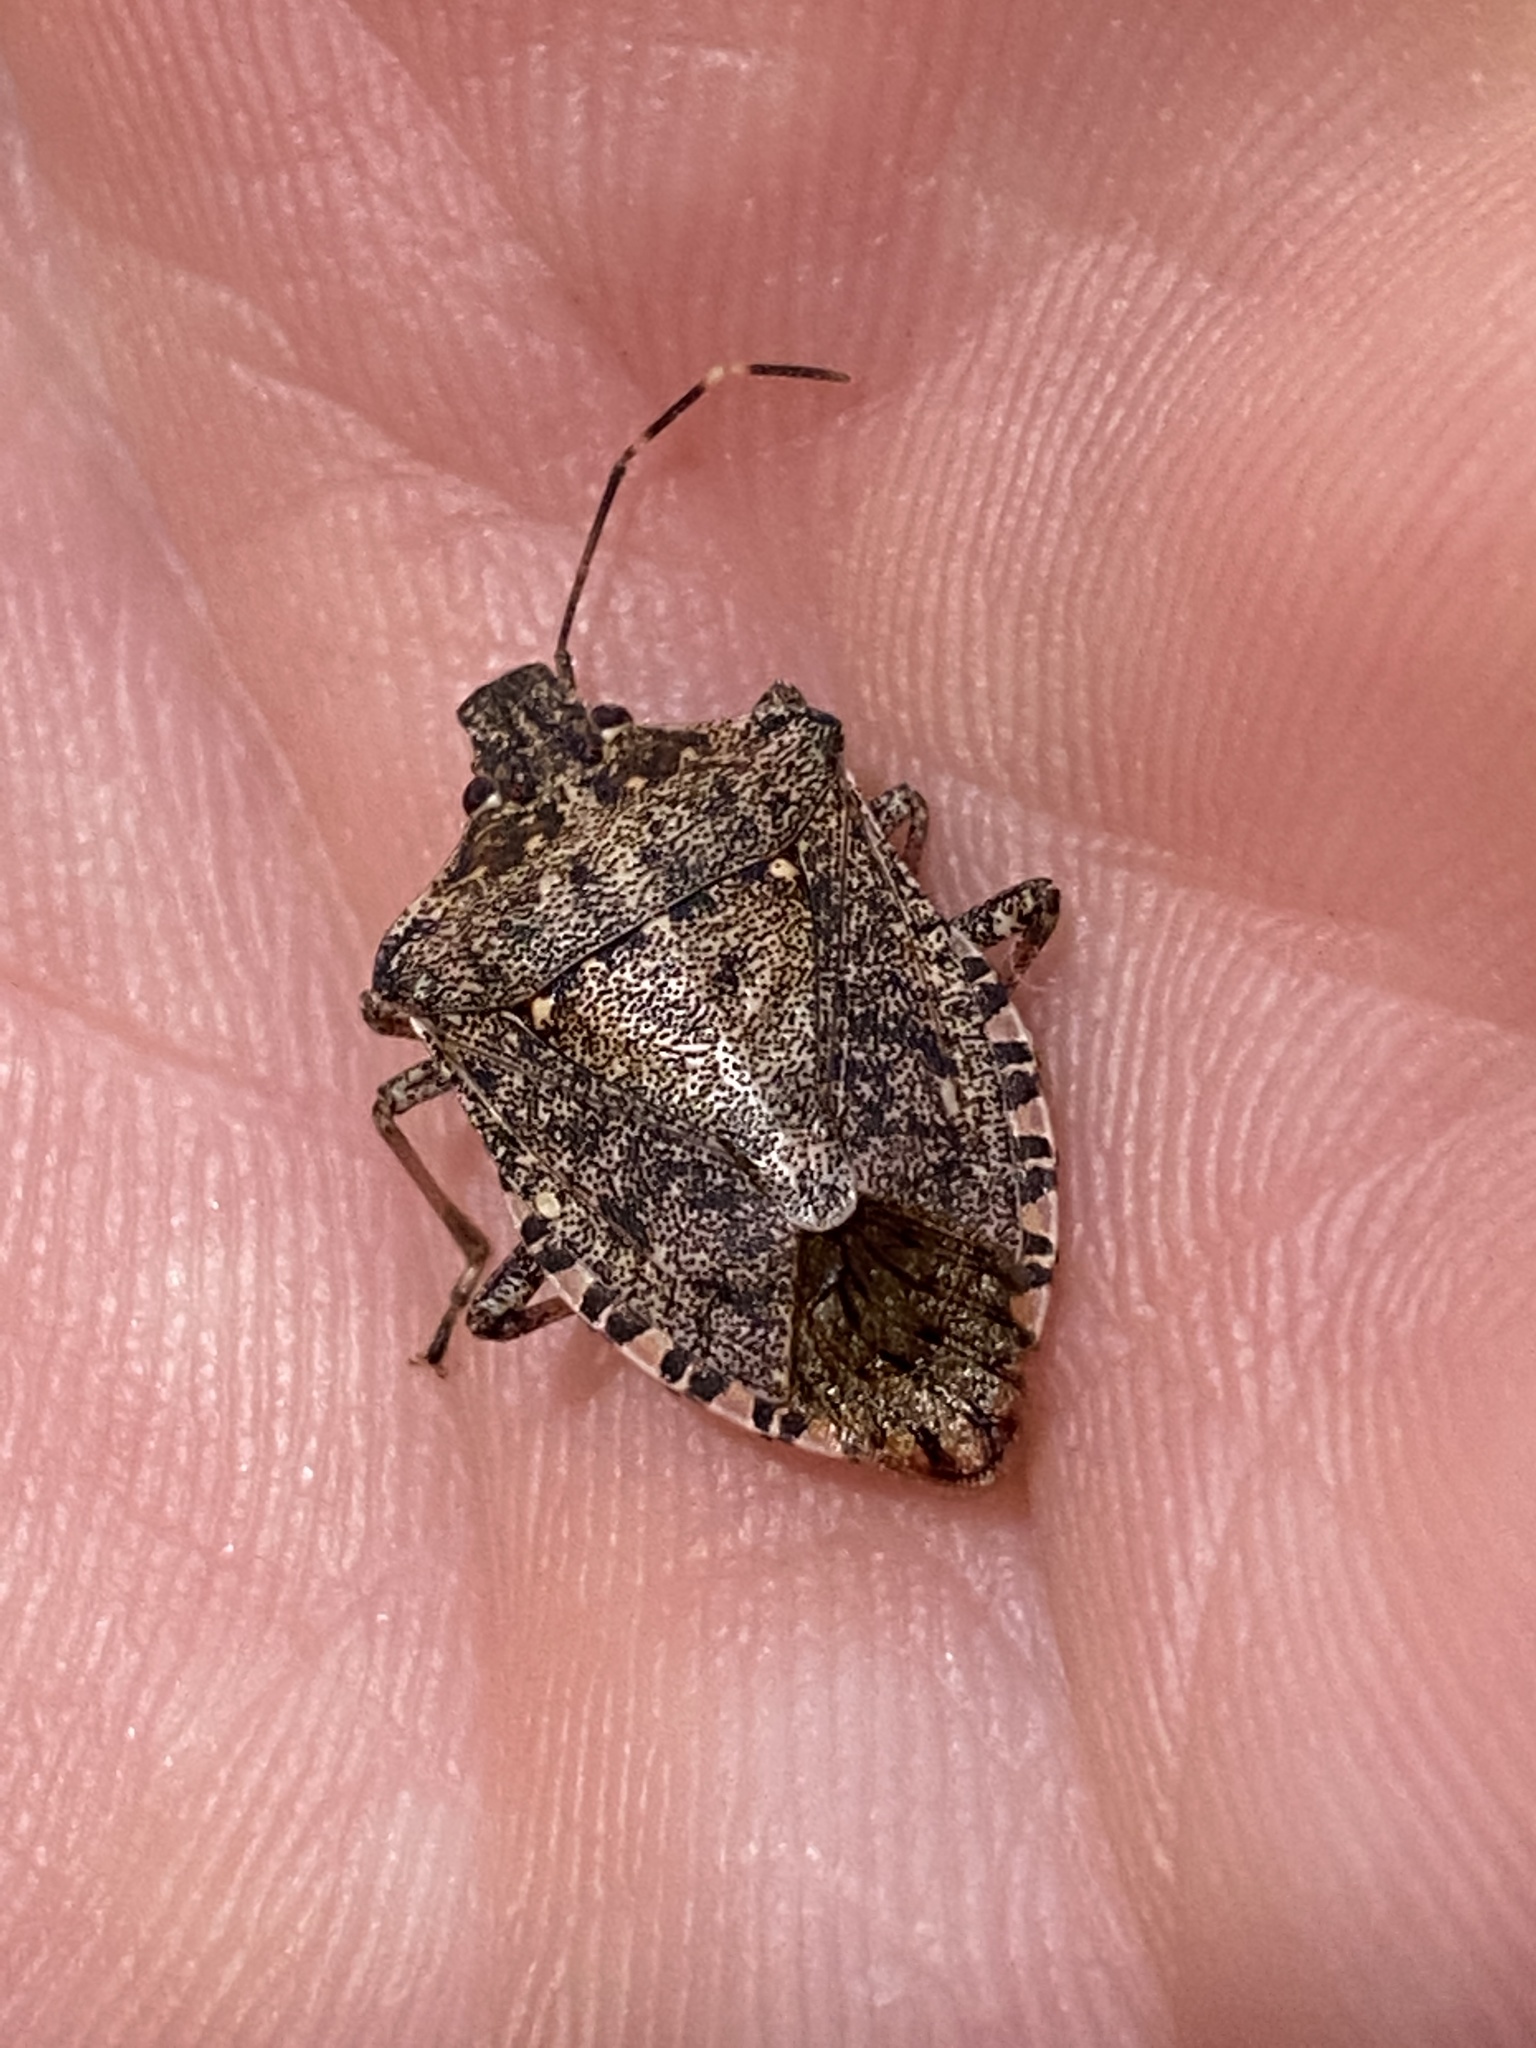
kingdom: Animalia
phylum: Arthropoda
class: Insecta
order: Hemiptera
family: Pentatomidae
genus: Halyomorpha
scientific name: Halyomorpha halys
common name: Brown marmorated stink bug
